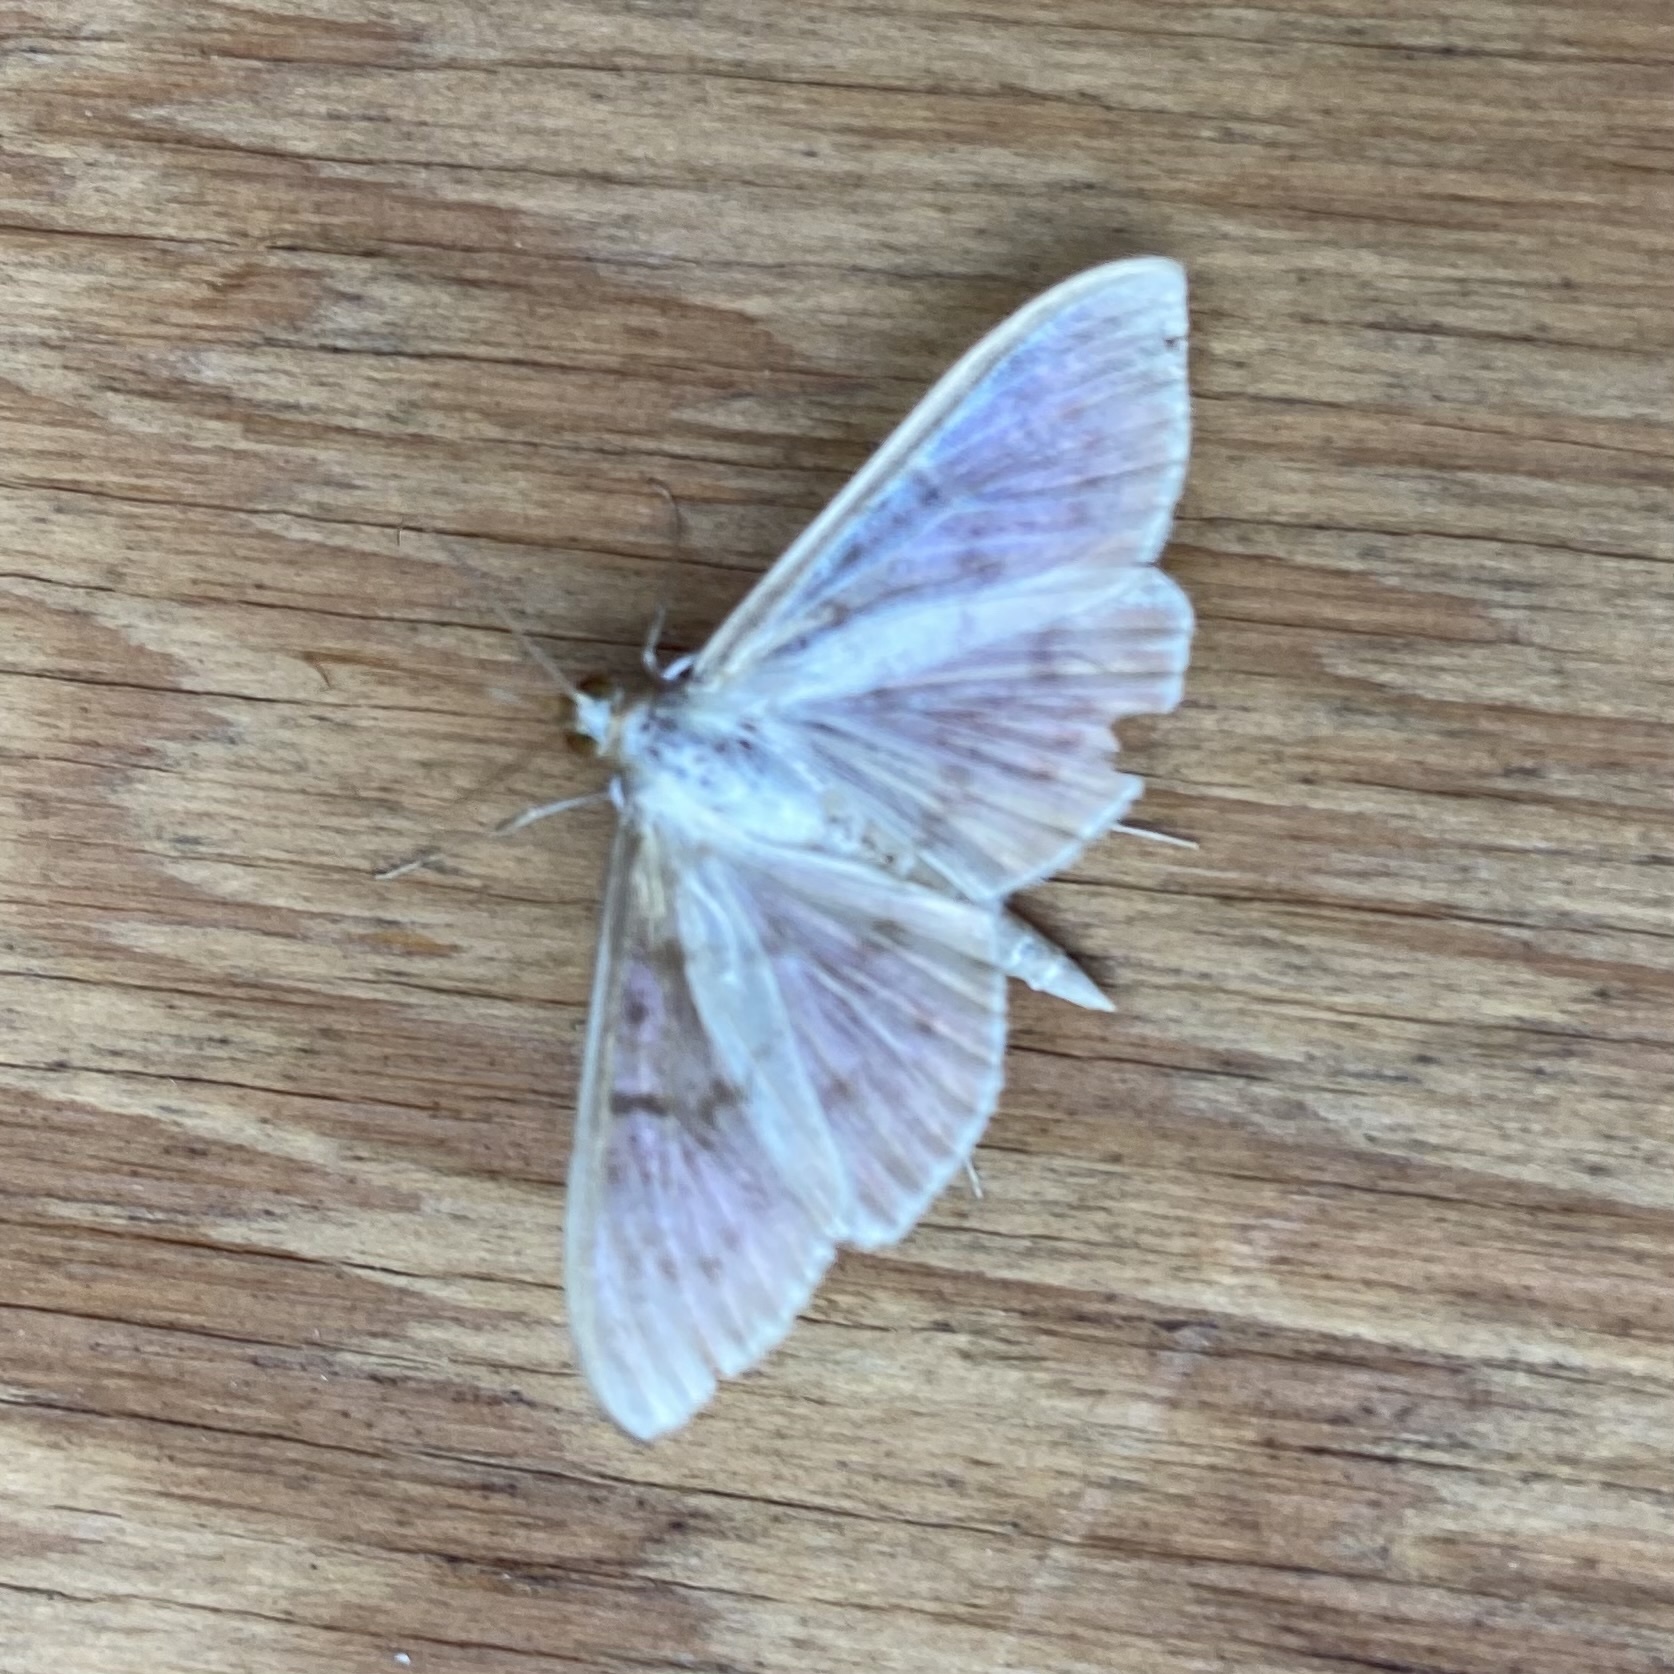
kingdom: Animalia
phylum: Arthropoda
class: Insecta
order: Lepidoptera
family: Crambidae
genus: Patania
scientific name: Patania ruralis
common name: Mother of pearl
